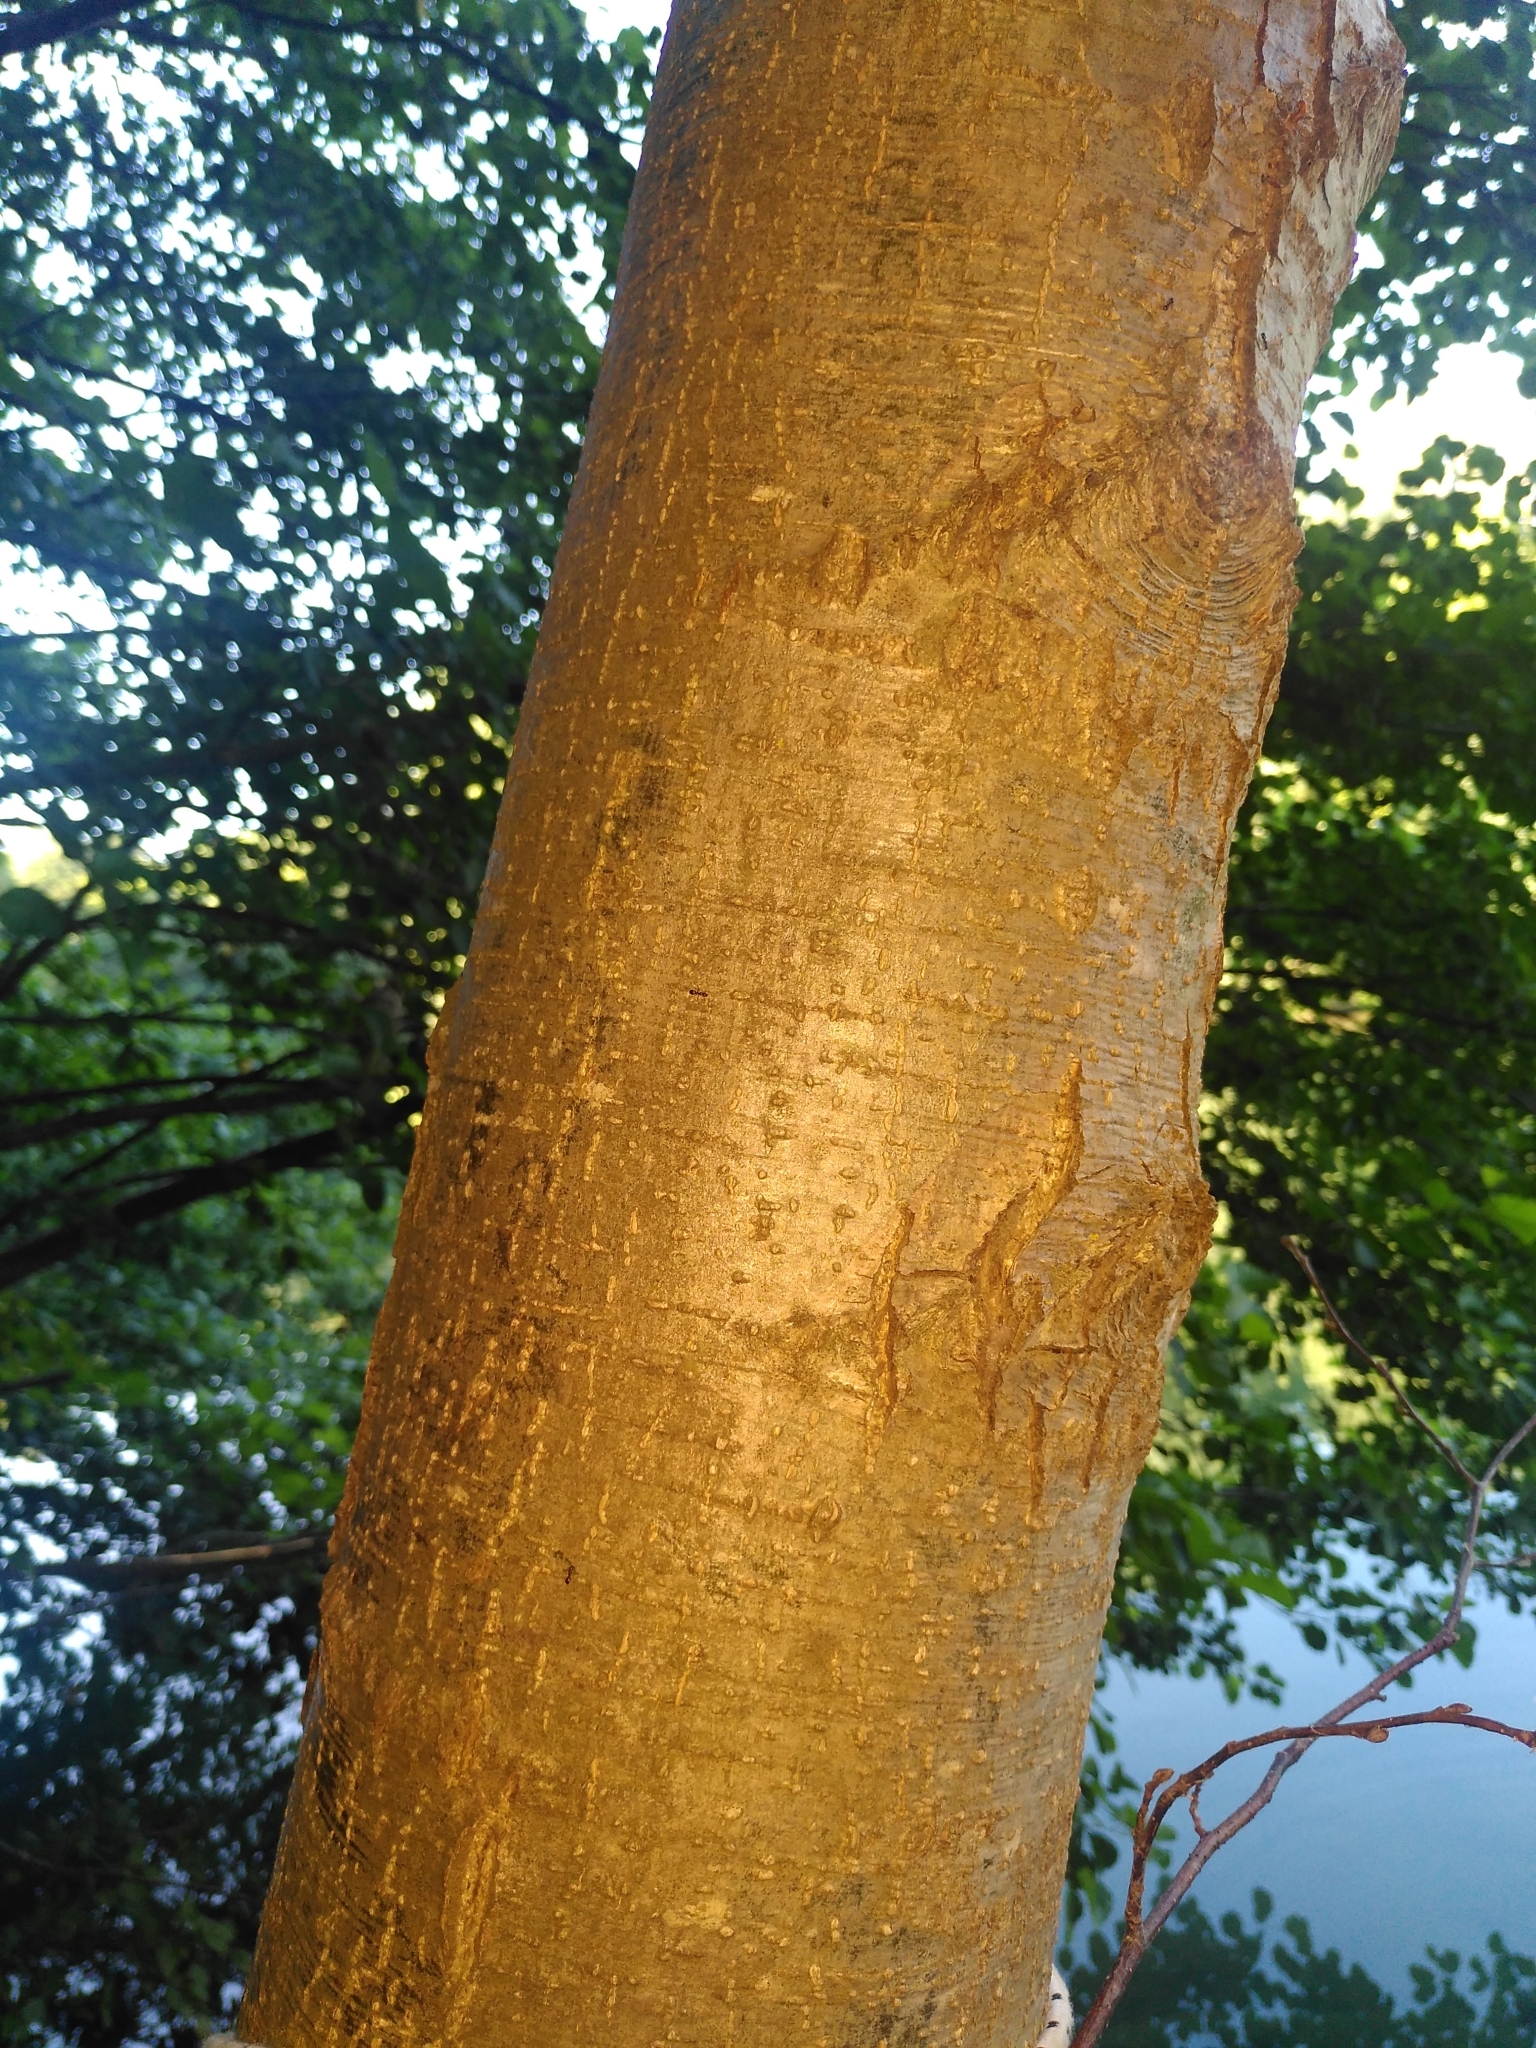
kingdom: Plantae
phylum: Tracheophyta
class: Magnoliopsida
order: Fagales
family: Betulaceae
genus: Alnus
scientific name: Alnus glutinosa
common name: Black alder
